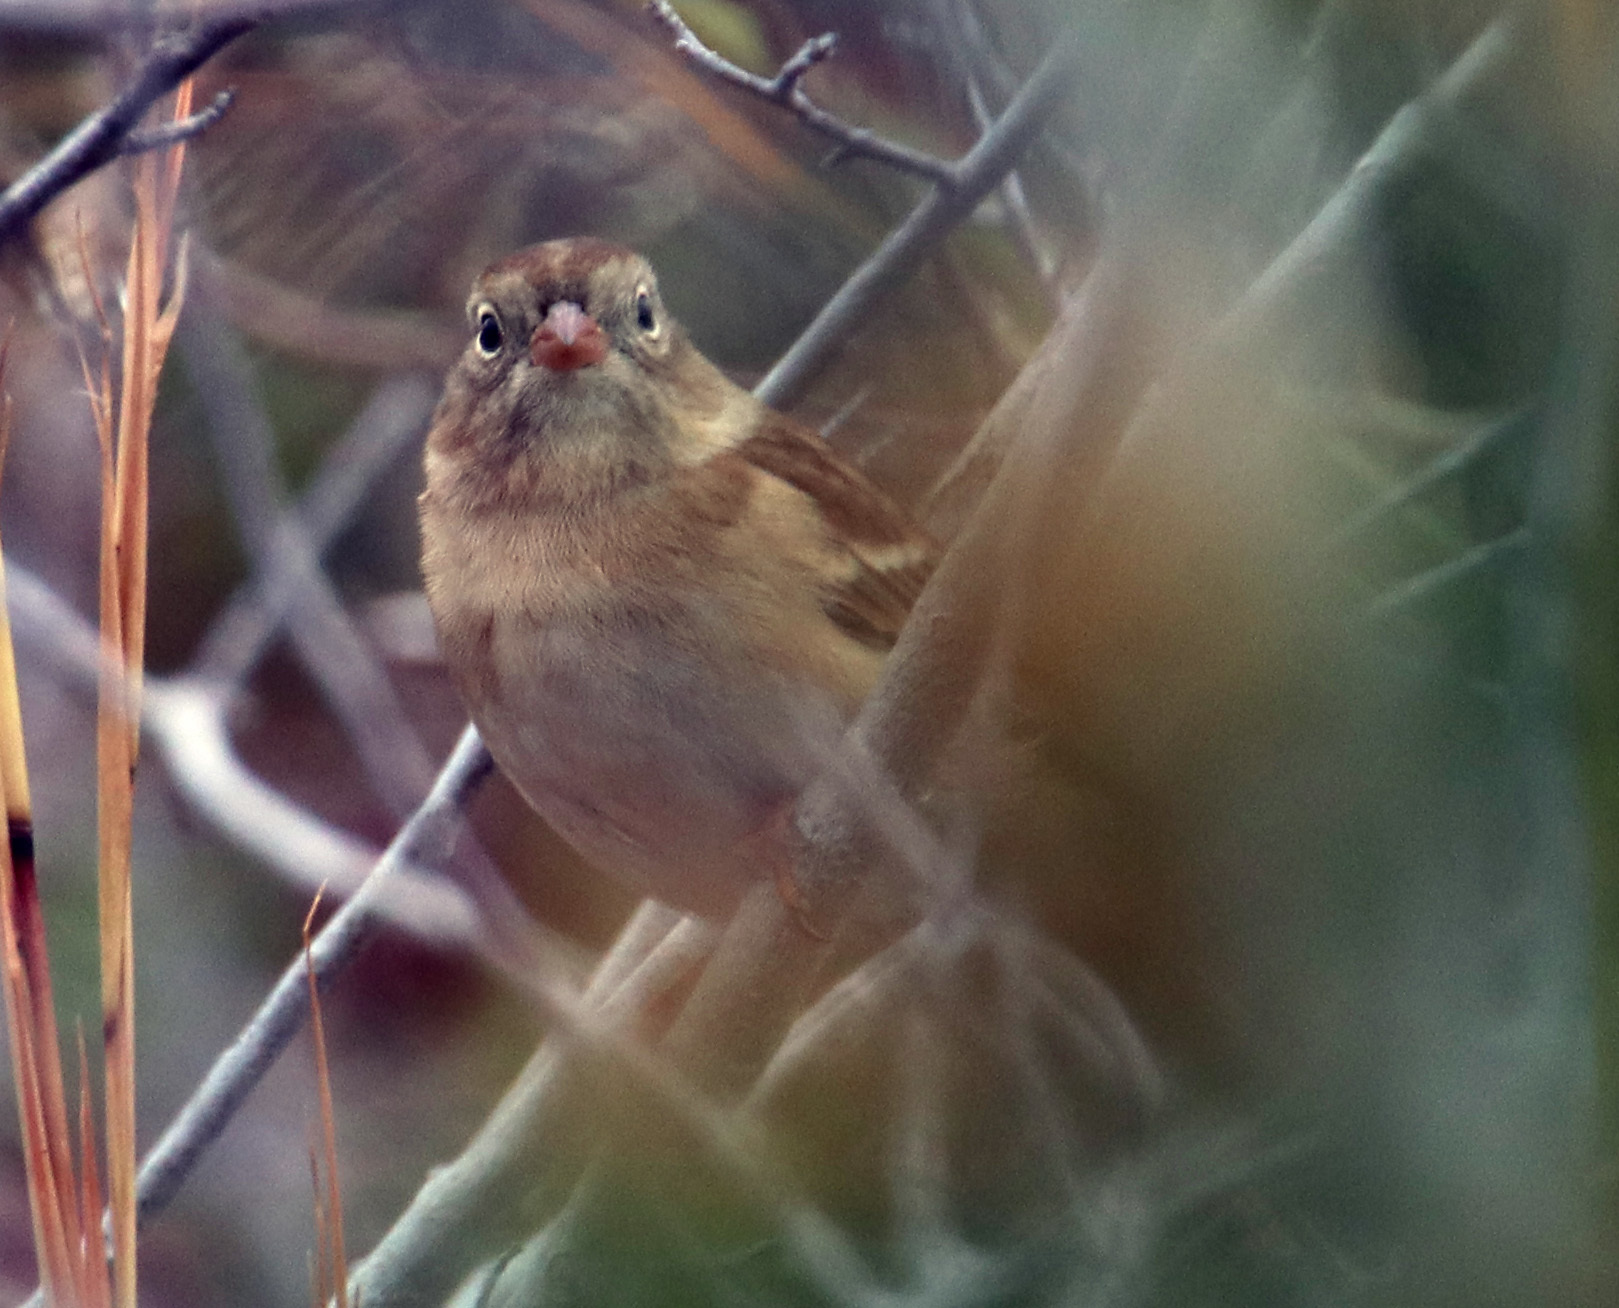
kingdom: Animalia
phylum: Chordata
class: Aves
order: Passeriformes
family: Passerellidae
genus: Spizella
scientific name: Spizella pusilla
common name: Field sparrow
